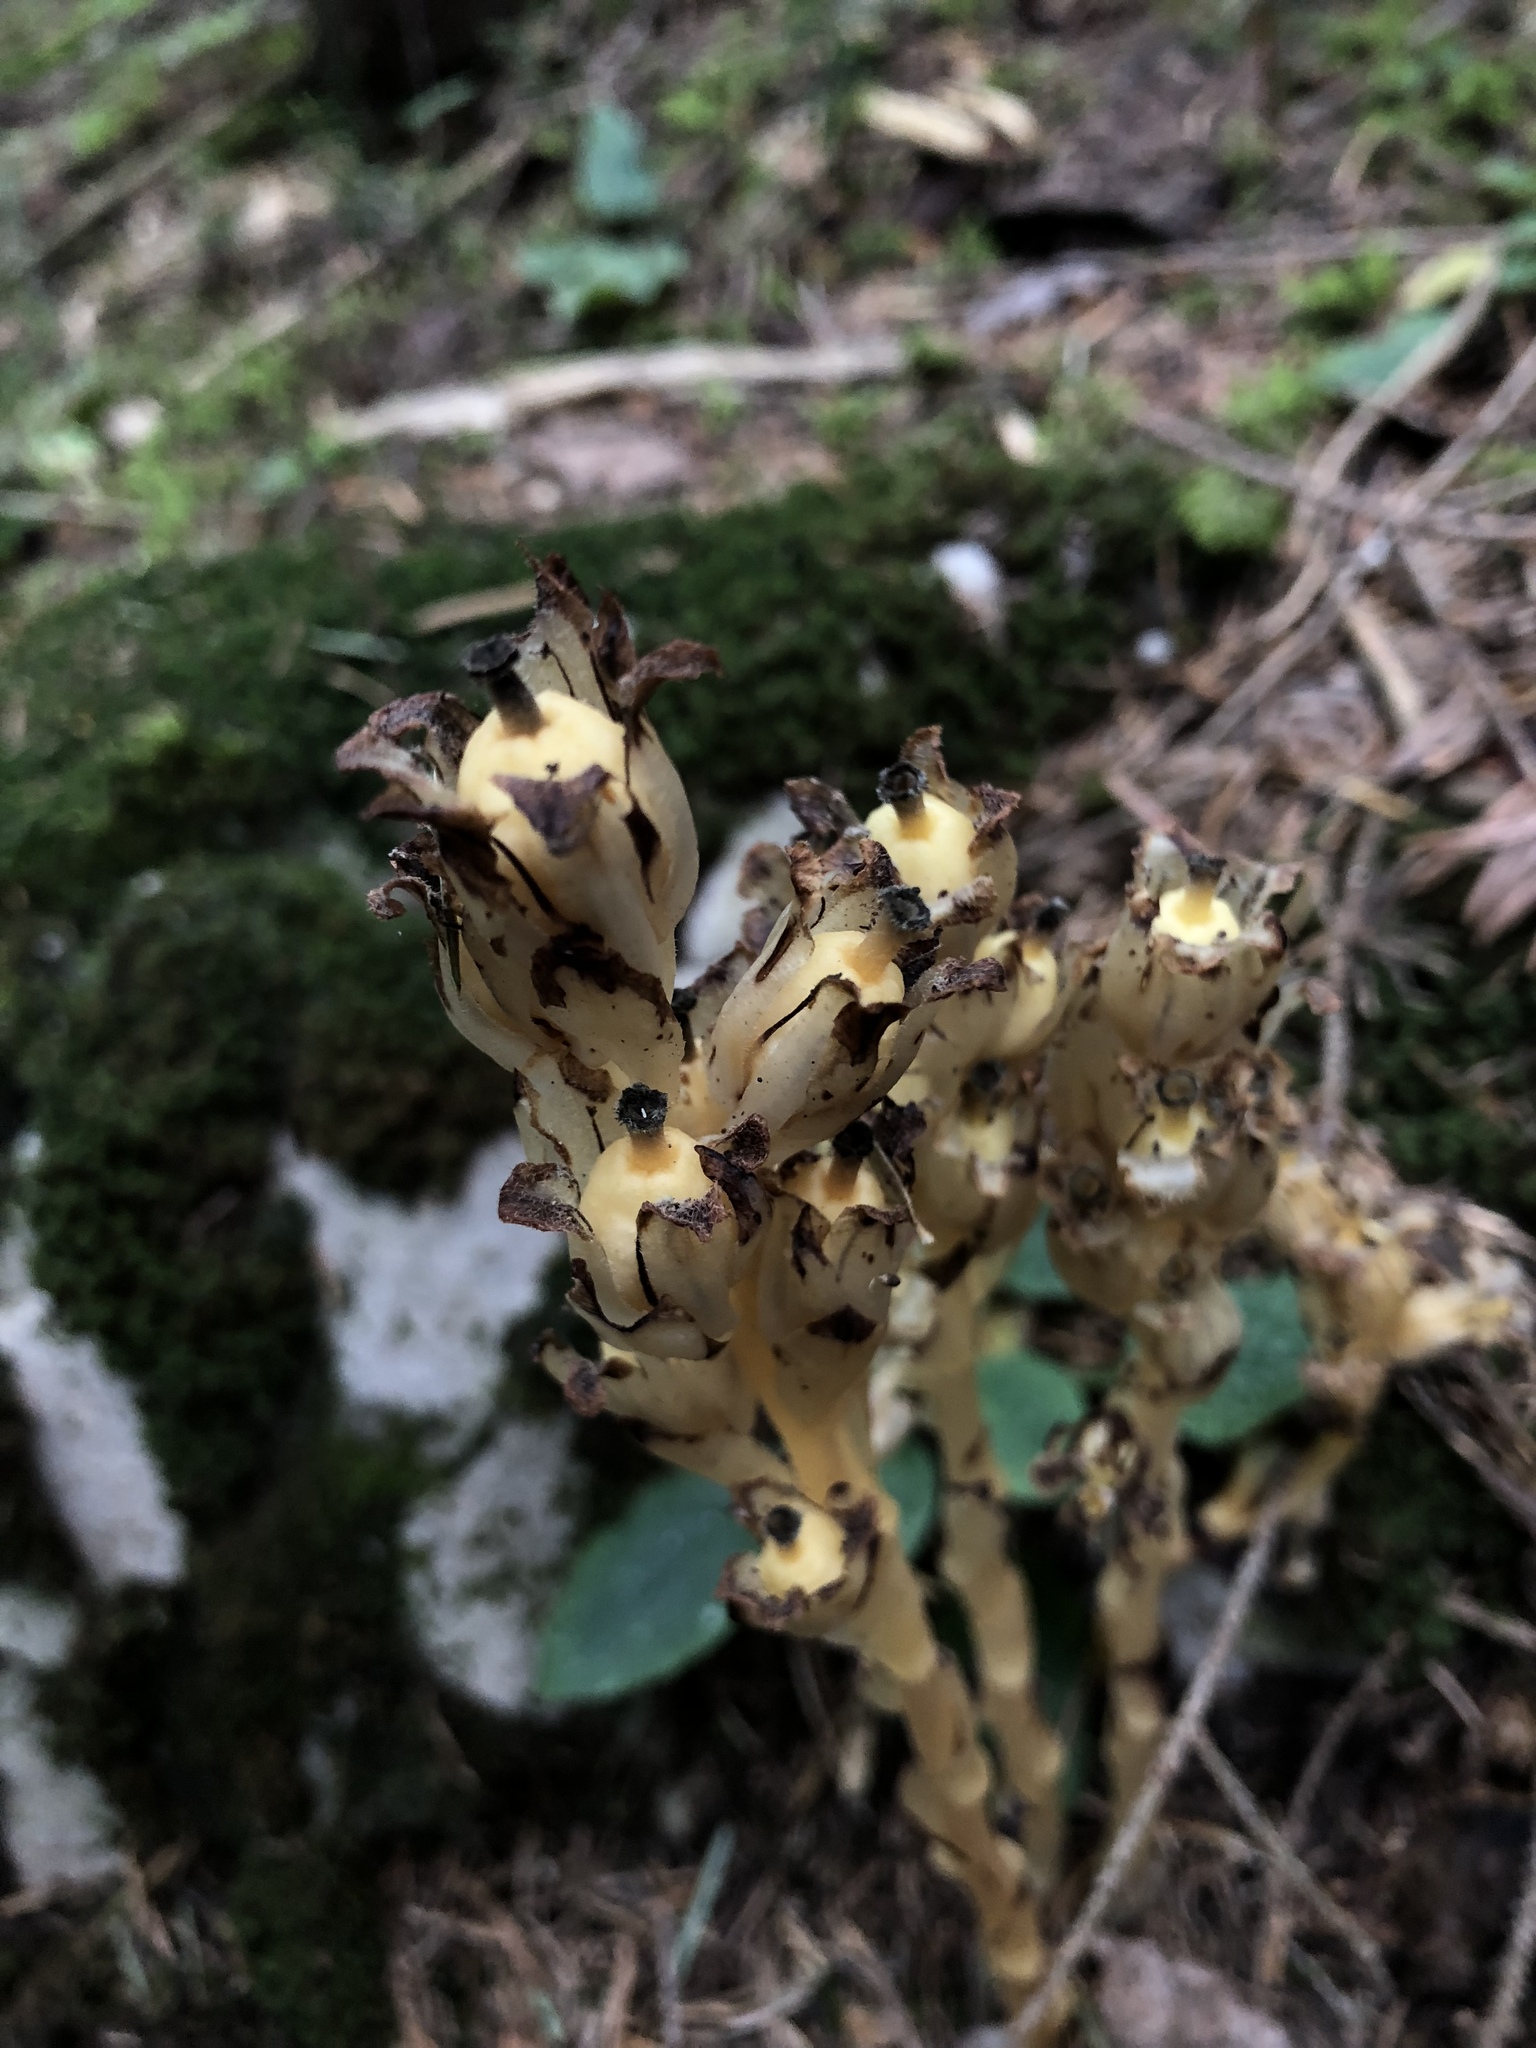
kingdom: Plantae
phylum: Tracheophyta
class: Magnoliopsida
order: Ericales
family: Ericaceae
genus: Hypopitys
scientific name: Hypopitys monotropa
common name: Yellow bird's-nest
